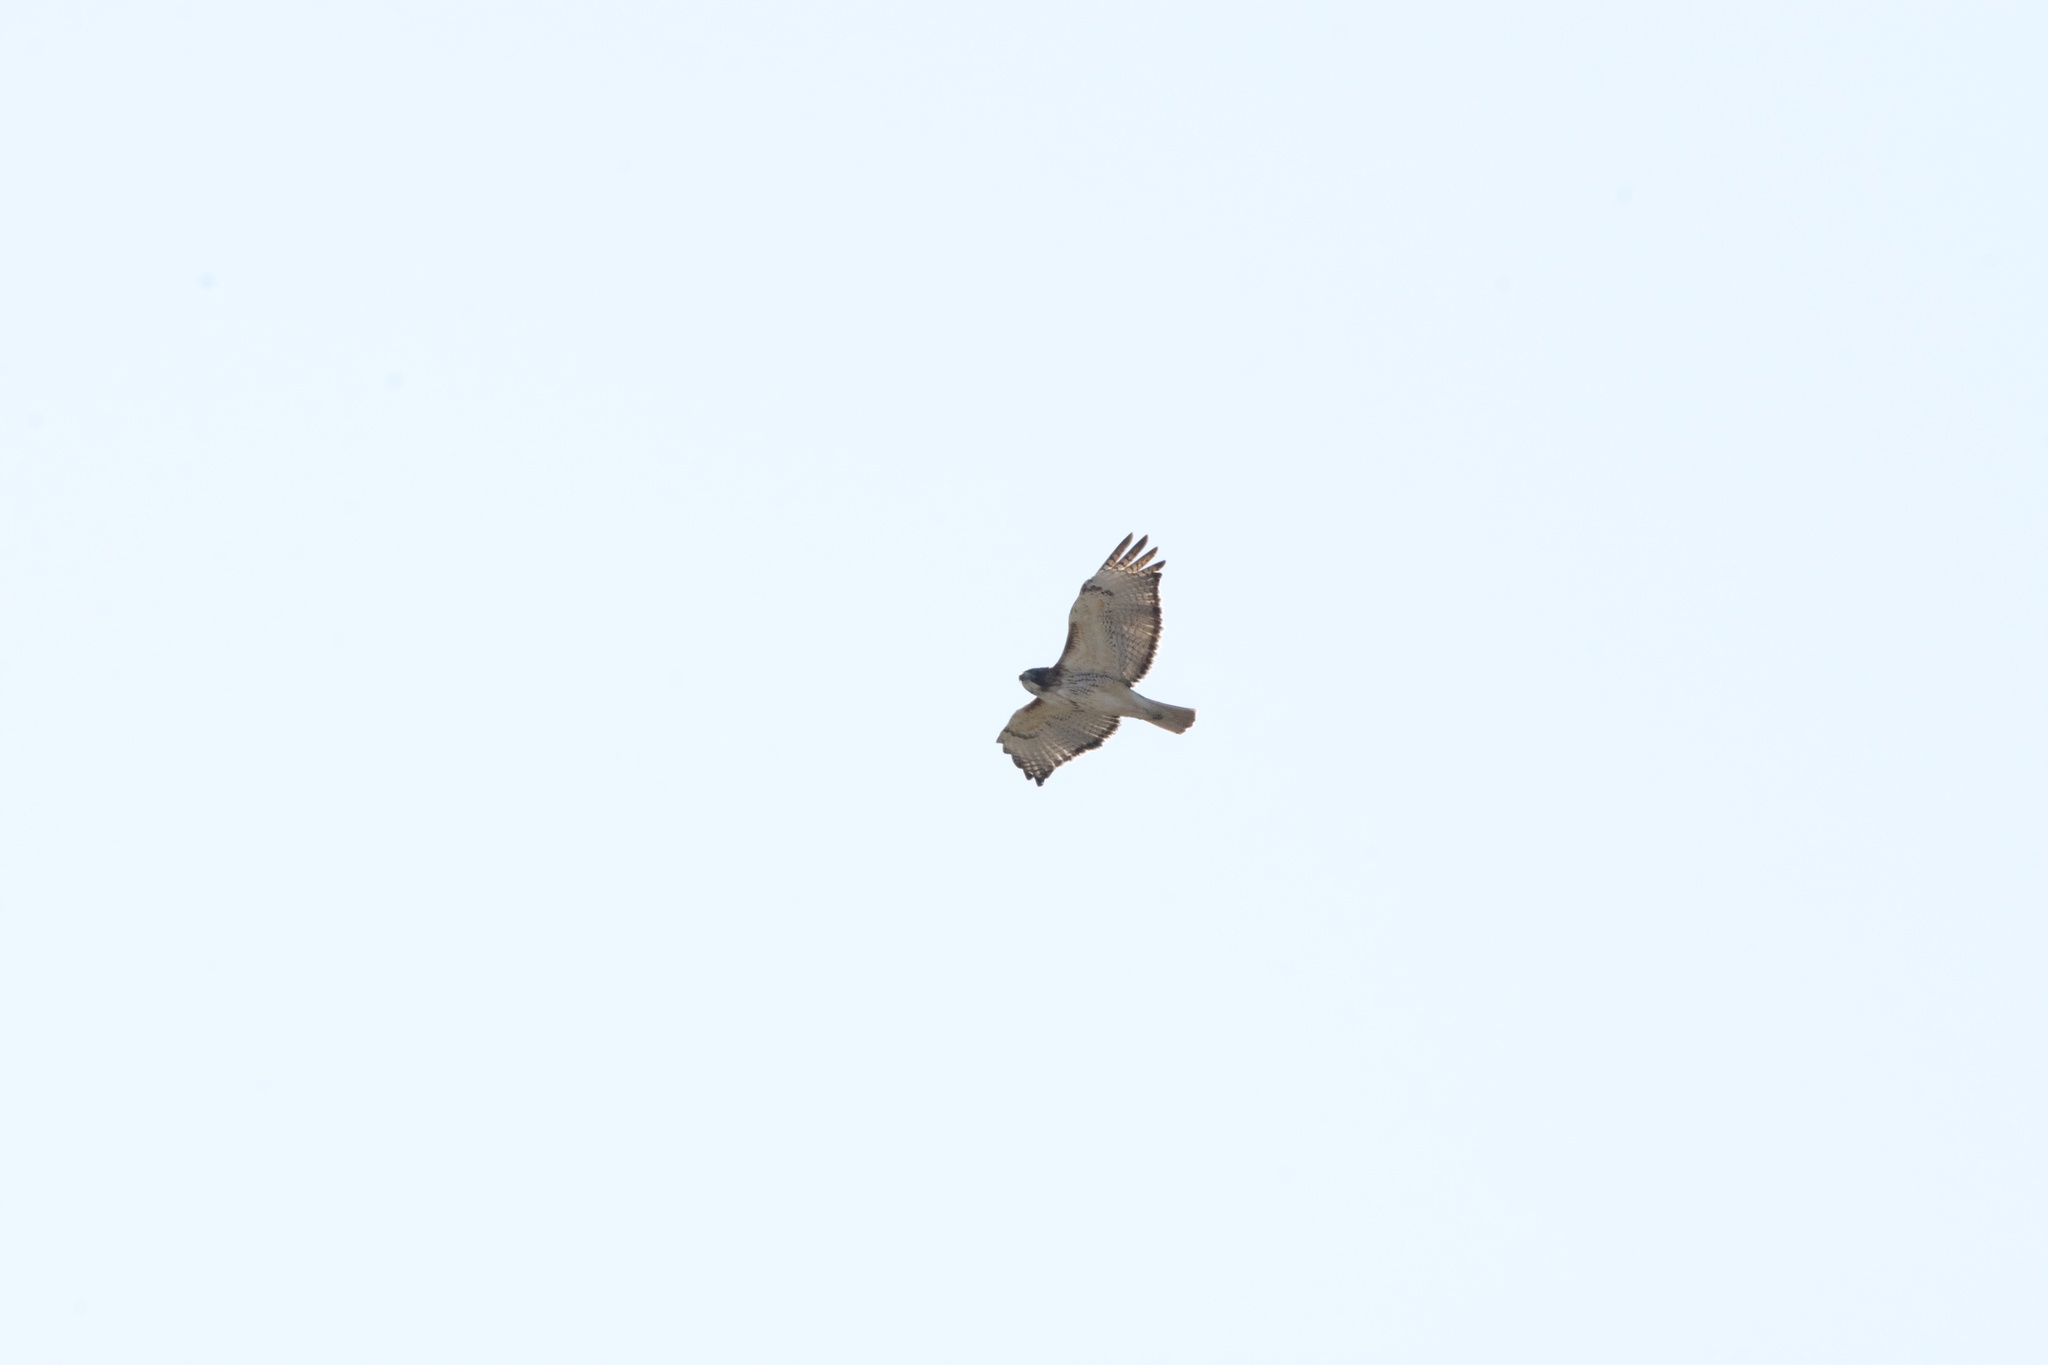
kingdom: Animalia
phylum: Chordata
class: Aves
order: Accipitriformes
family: Accipitridae
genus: Buteo
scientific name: Buteo jamaicensis
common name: Red-tailed hawk
